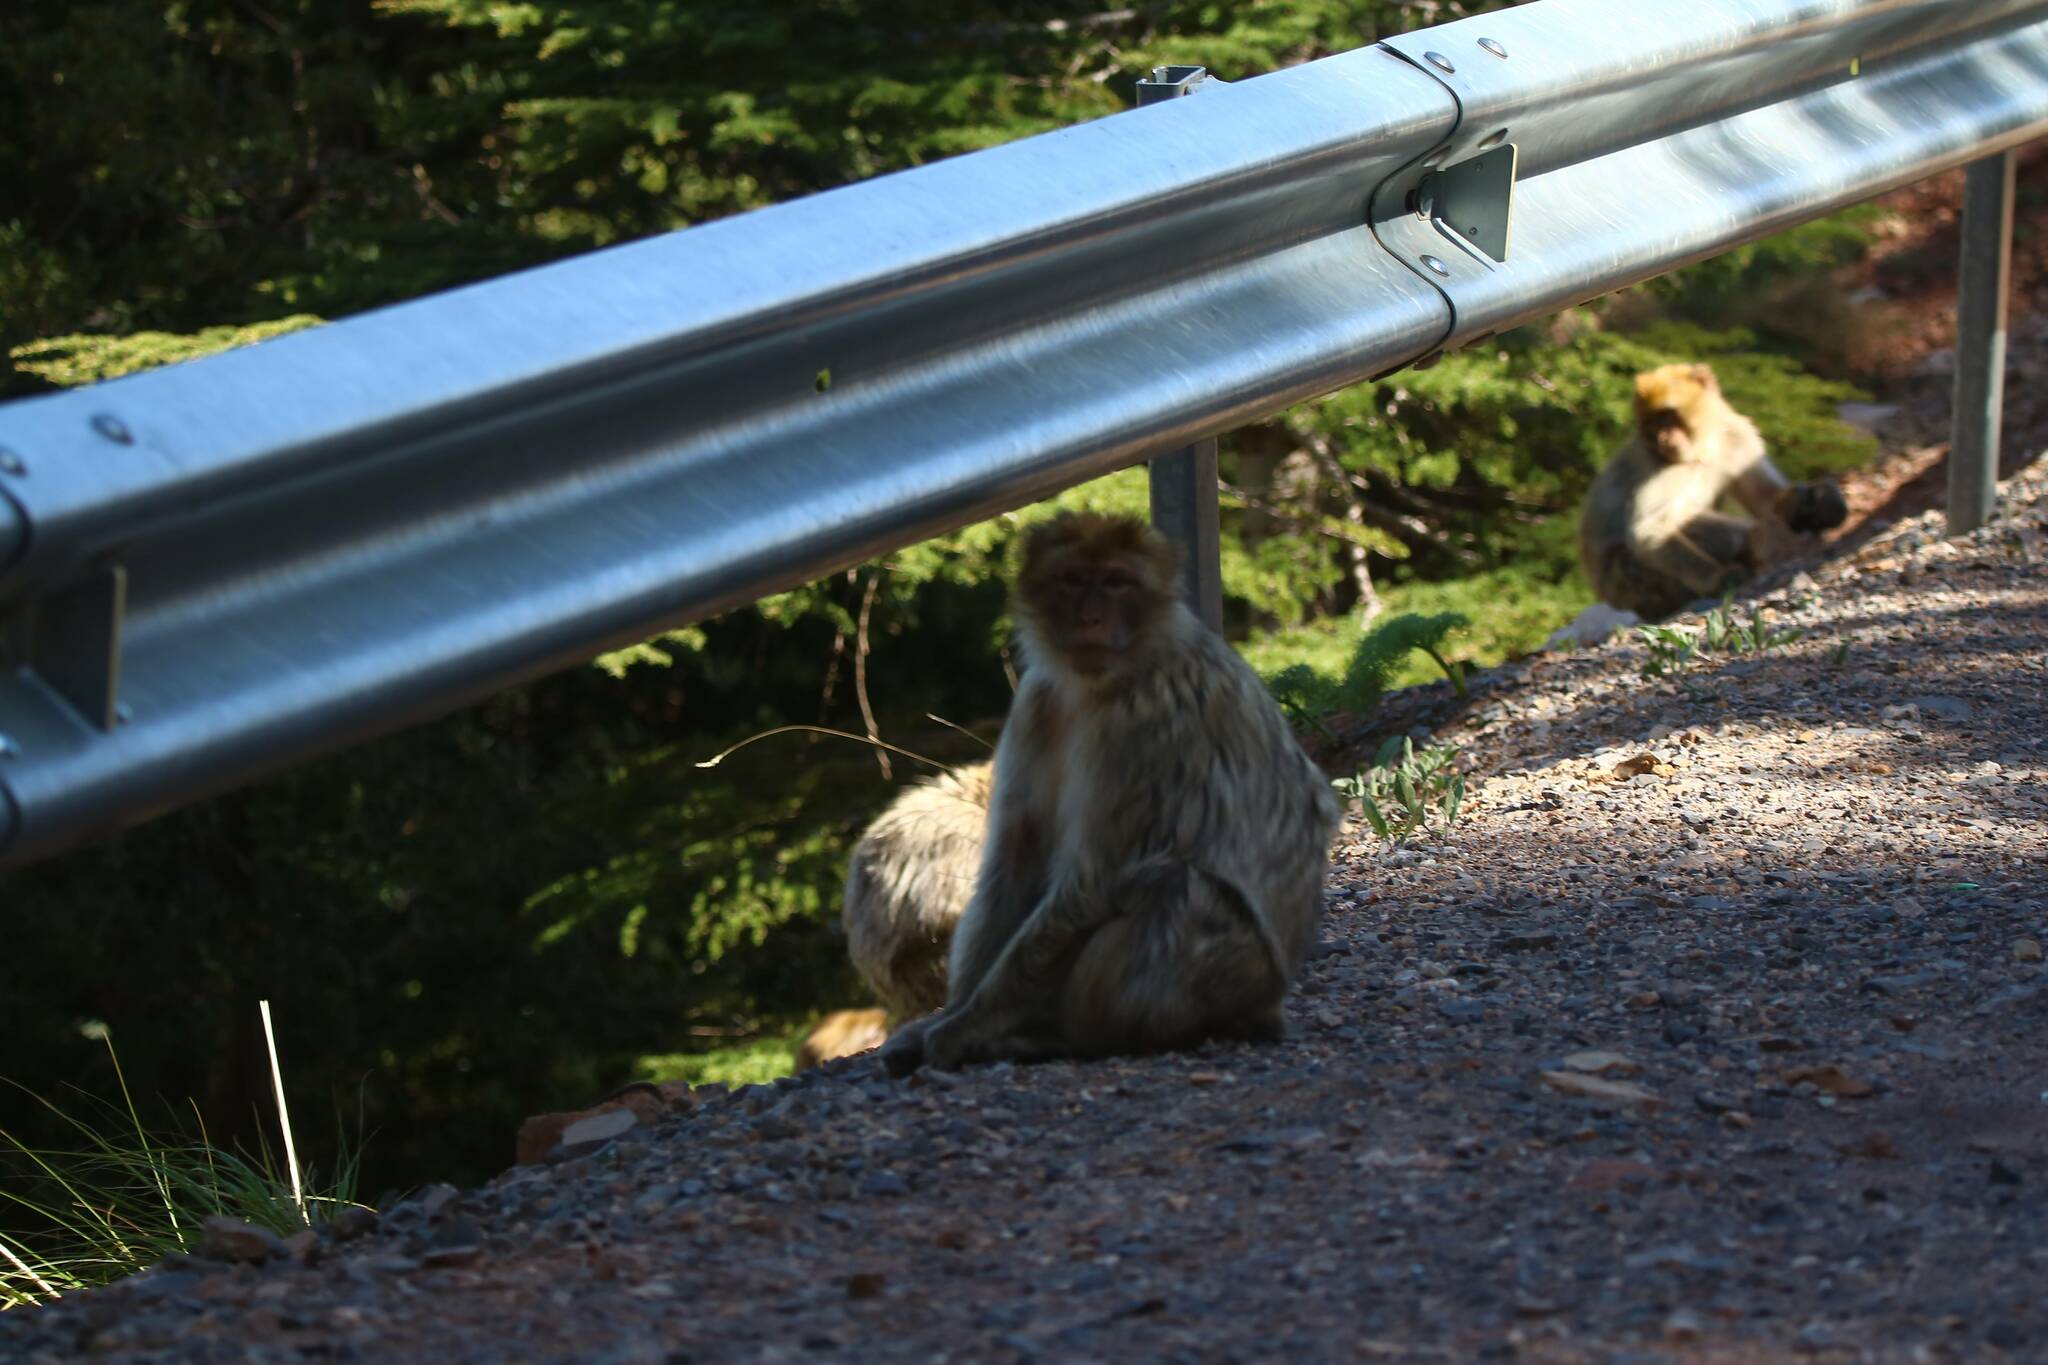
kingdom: Animalia
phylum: Chordata
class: Mammalia
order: Primates
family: Cercopithecidae
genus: Macaca
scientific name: Macaca sylvanus
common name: Barbary macaque
